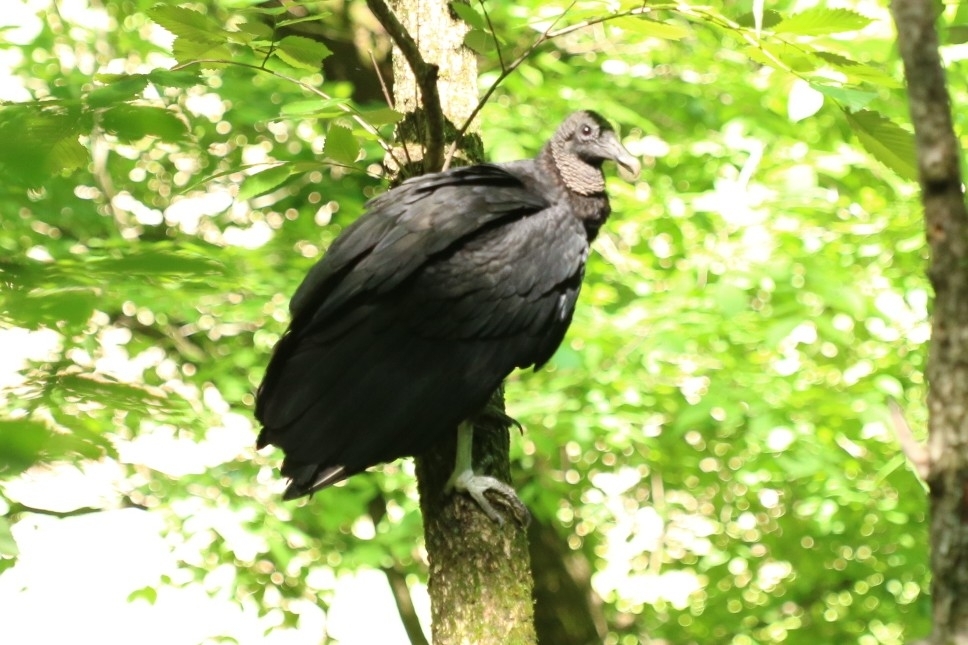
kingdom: Animalia
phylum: Chordata
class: Aves
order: Accipitriformes
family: Cathartidae
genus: Coragyps
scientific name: Coragyps atratus
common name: Black vulture
